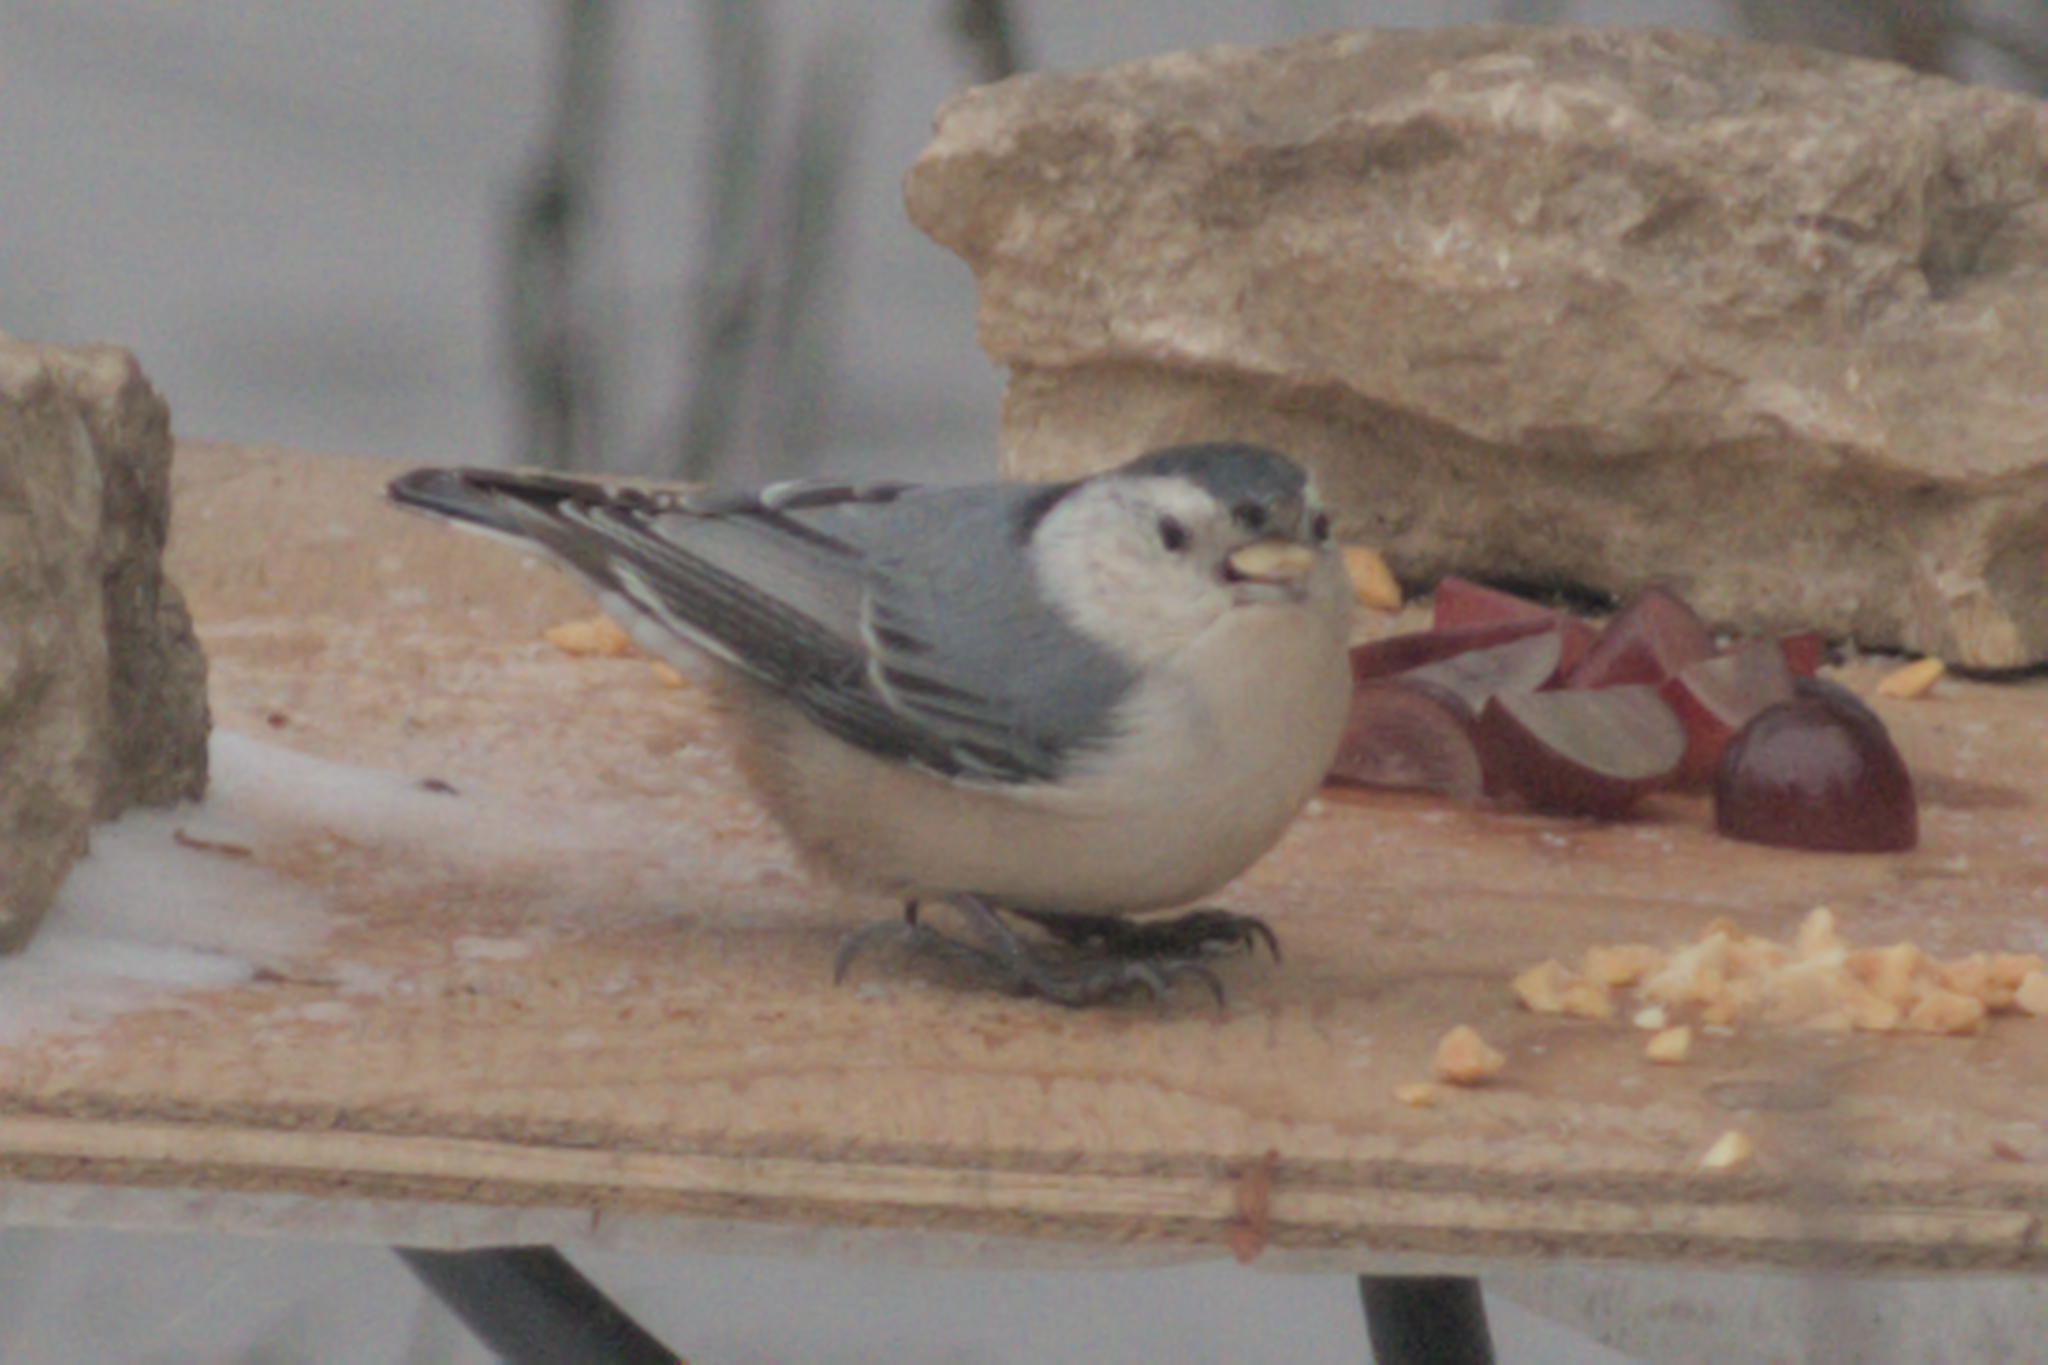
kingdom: Animalia
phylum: Chordata
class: Aves
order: Passeriformes
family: Sittidae
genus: Sitta
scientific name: Sitta carolinensis
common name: White-breasted nuthatch
